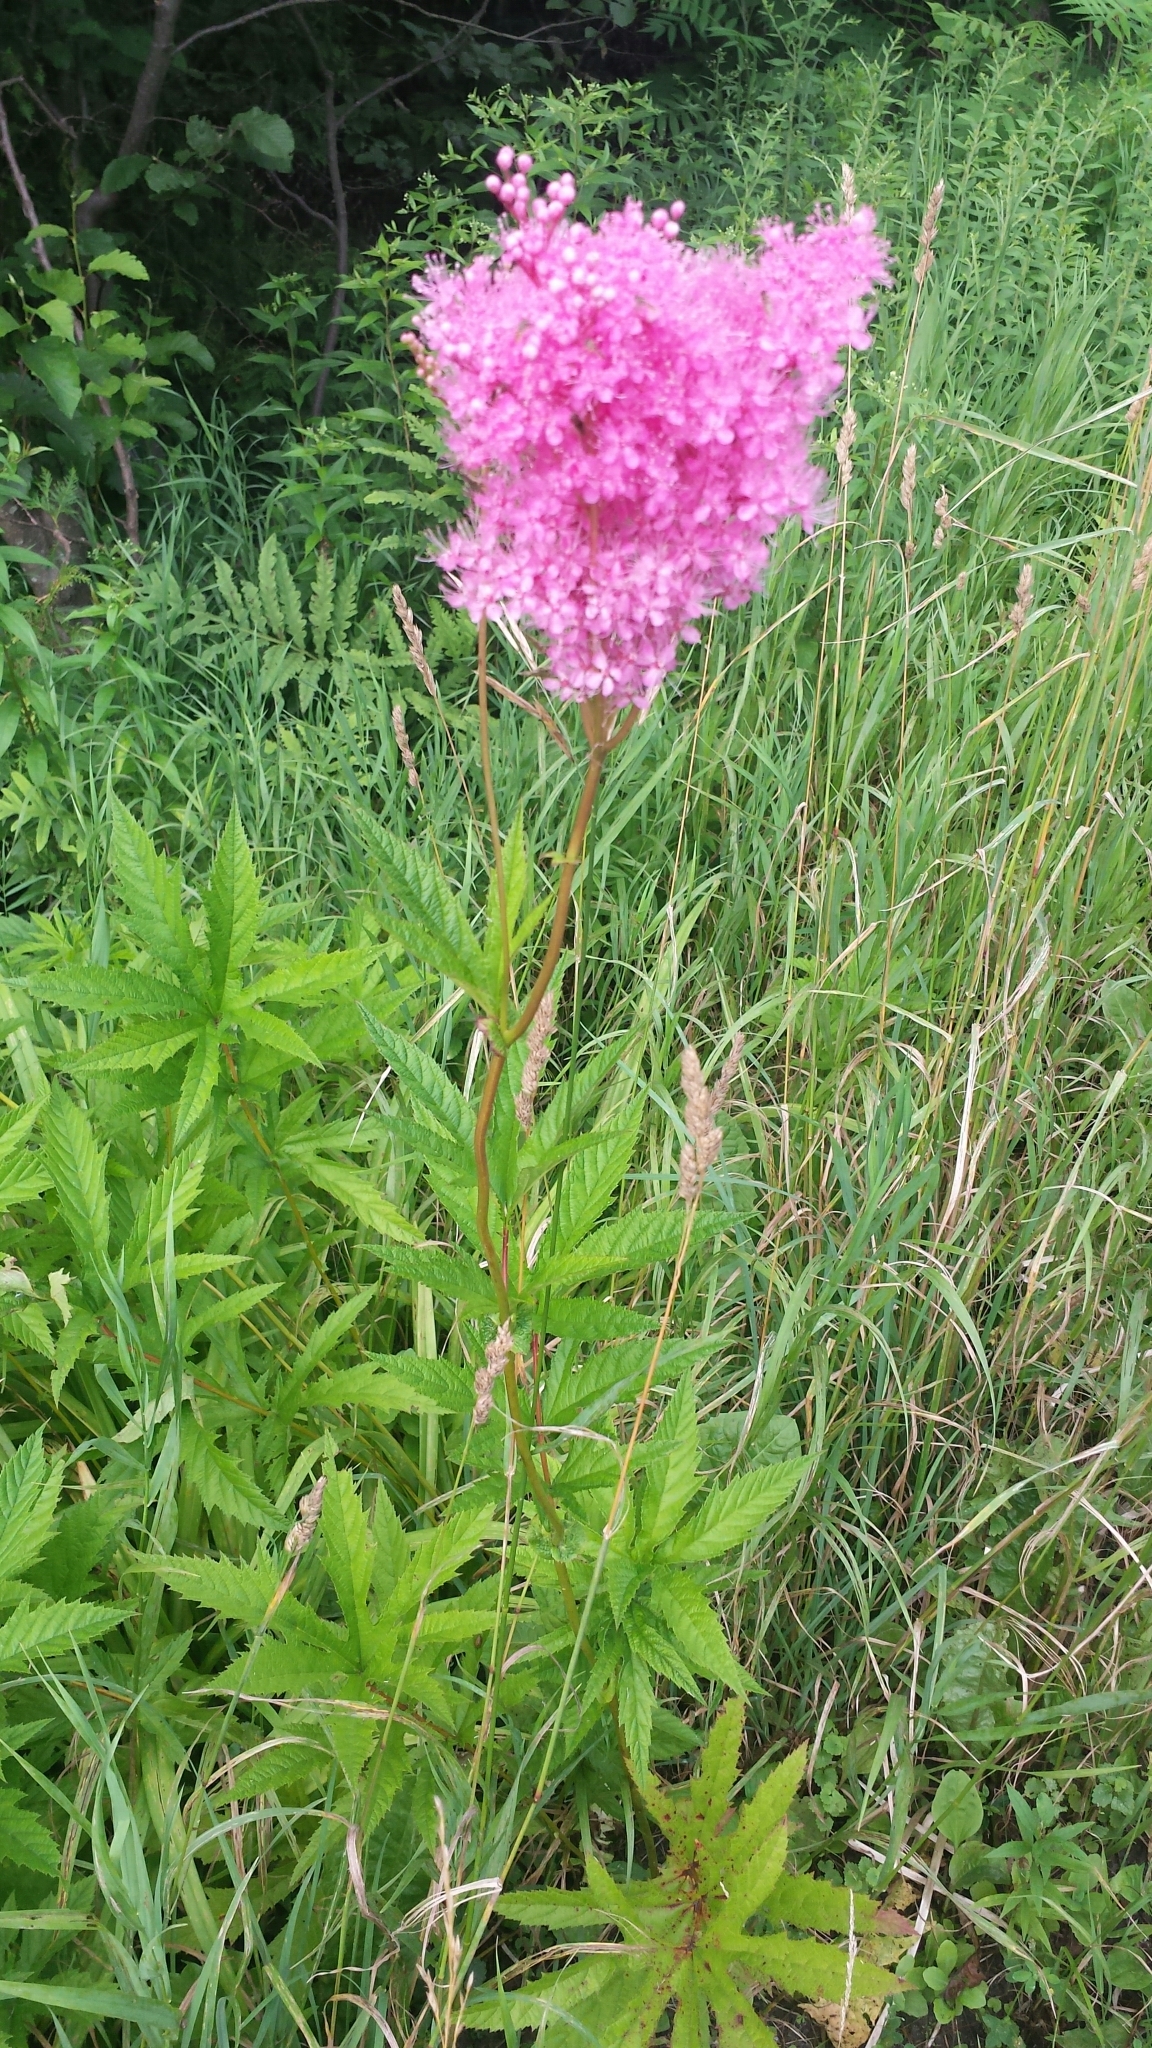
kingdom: Plantae
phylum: Tracheophyta
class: Magnoliopsida
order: Rosales
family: Rosaceae
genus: Filipendula
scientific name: Filipendula rubra
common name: Queen-of-the-prairie
